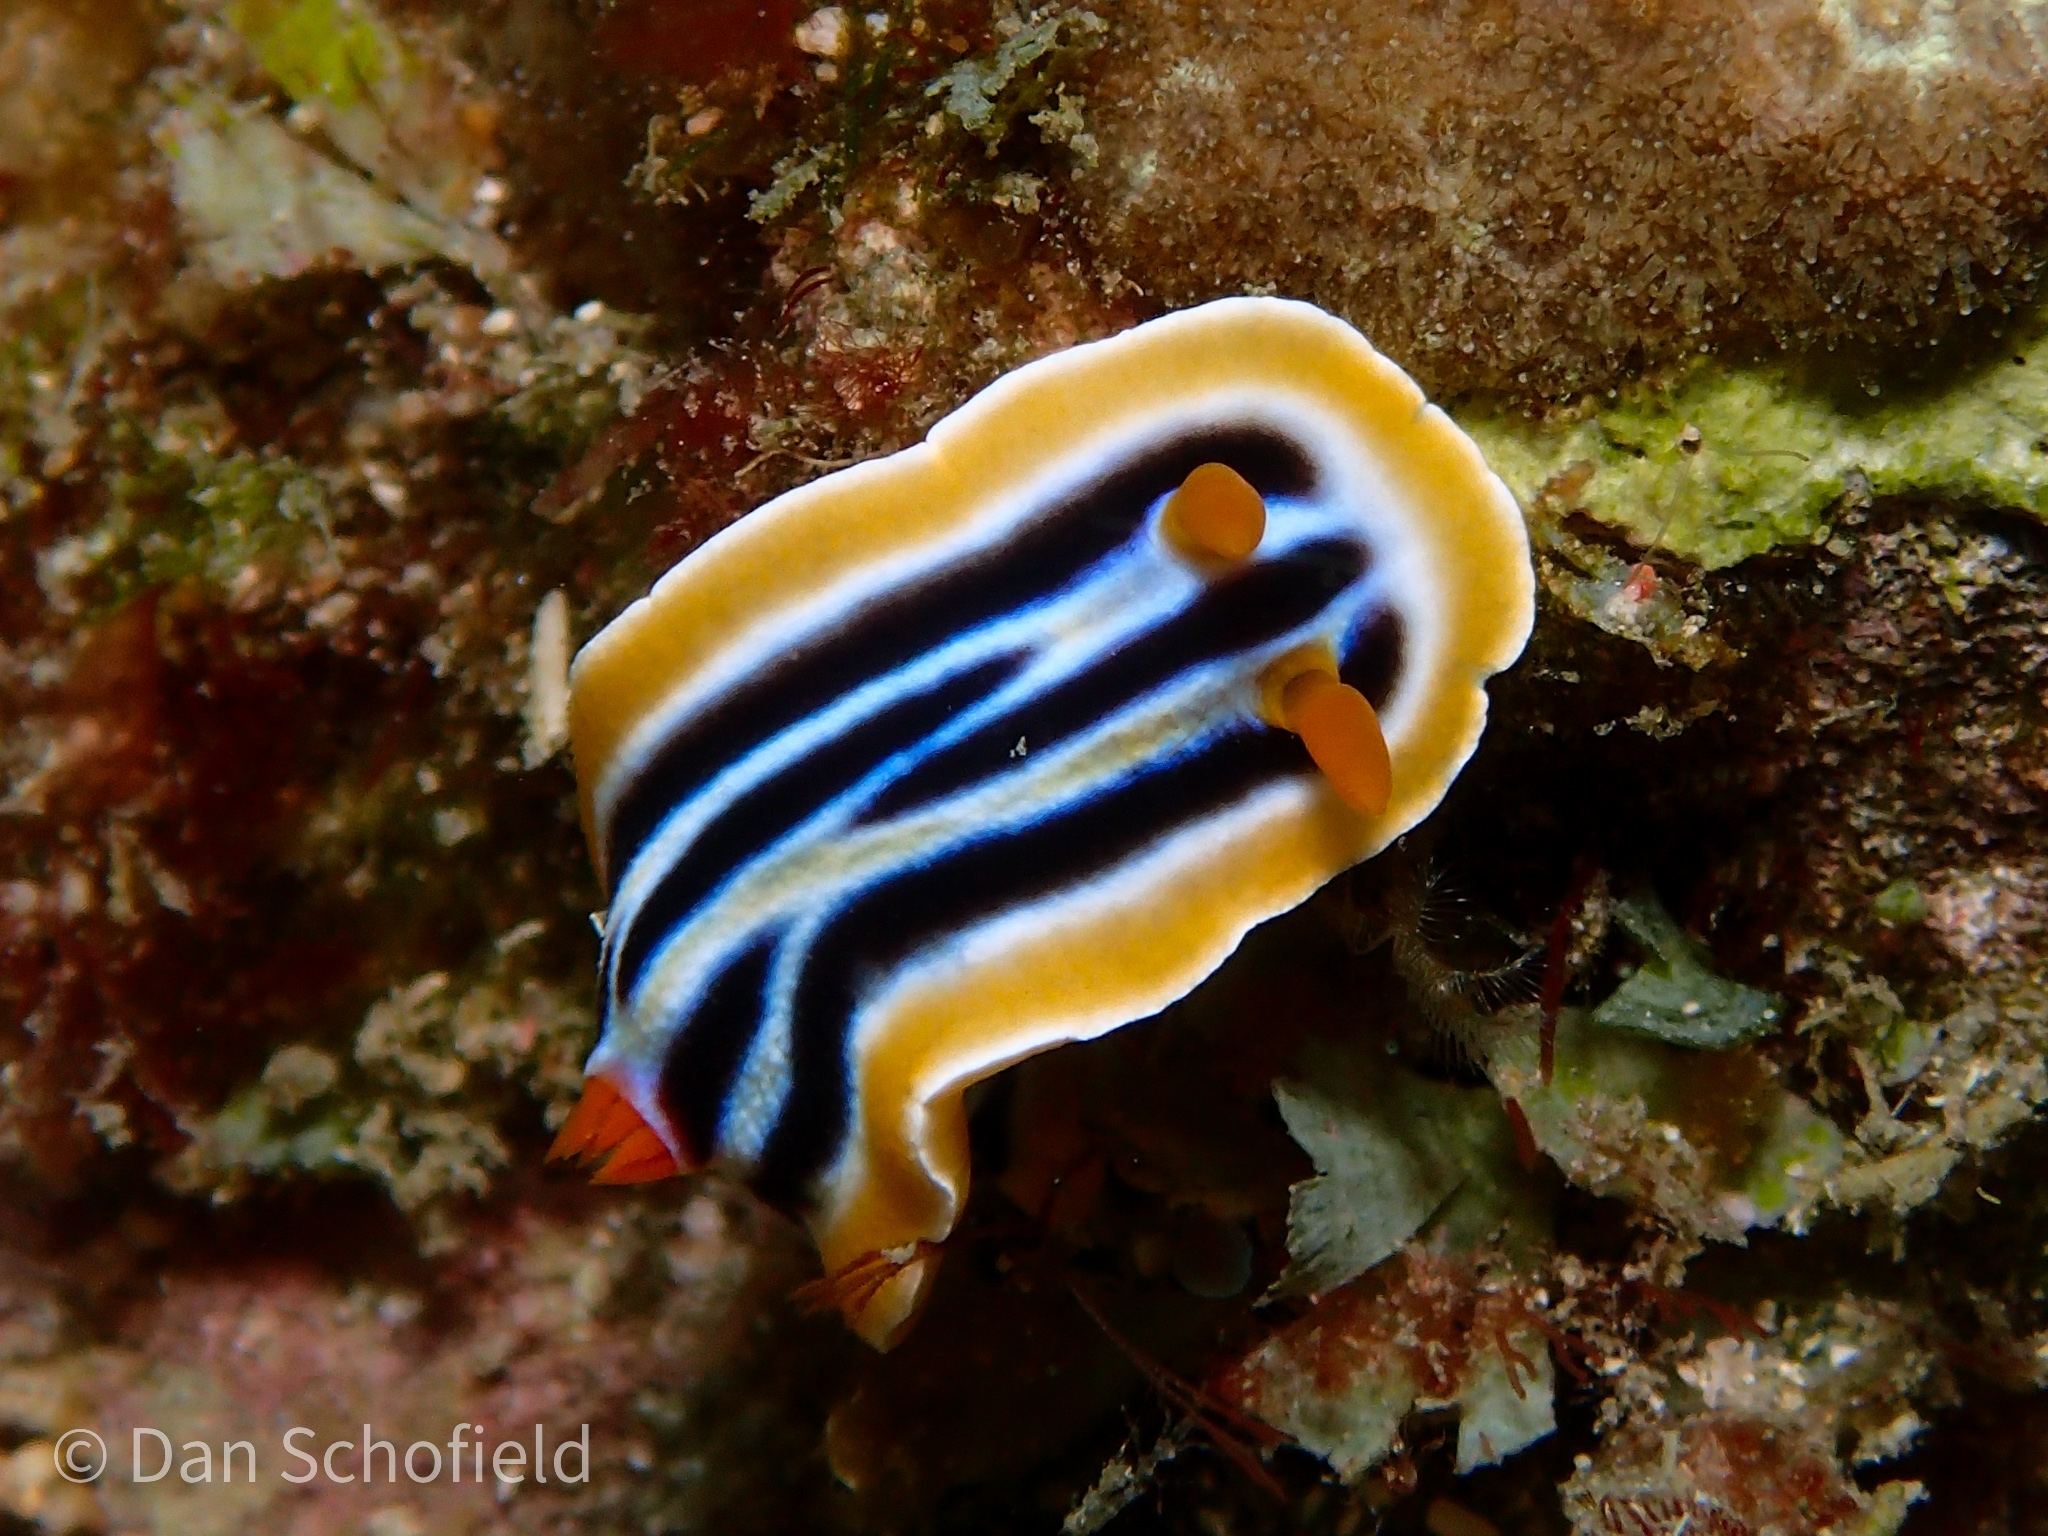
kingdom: Animalia
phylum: Mollusca
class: Gastropoda
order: Nudibranchia
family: Chromodorididae
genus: Chromodoris
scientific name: Chromodoris colemani
